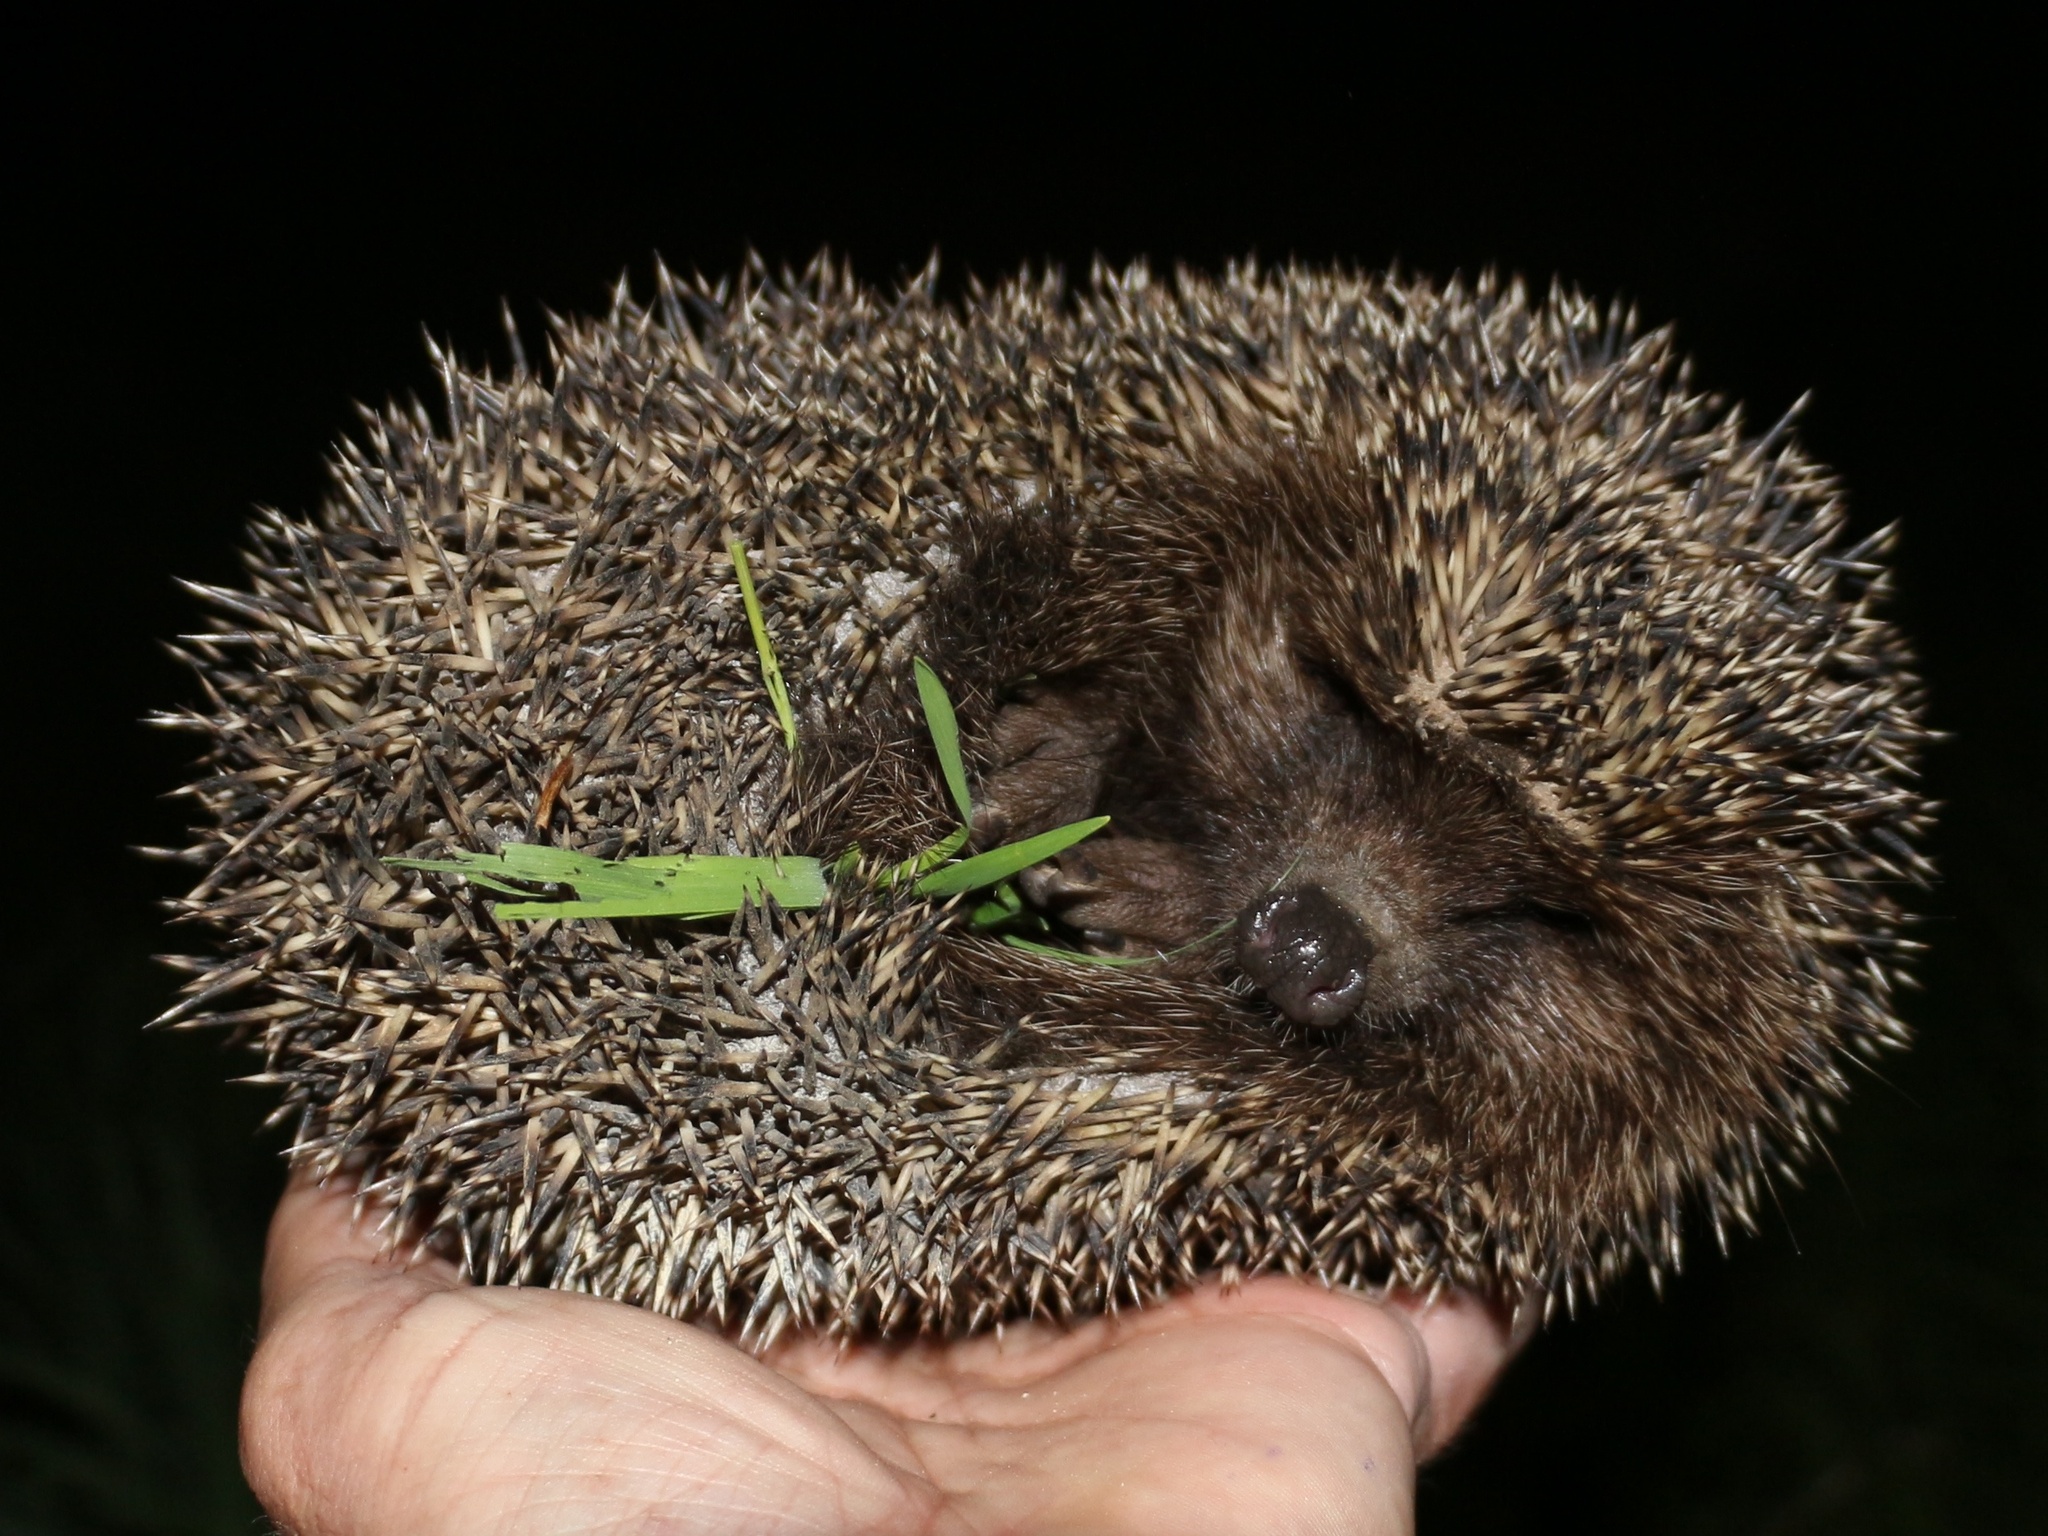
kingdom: Animalia
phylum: Chordata
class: Mammalia
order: Erinaceomorpha
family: Erinaceidae
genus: Erinaceus
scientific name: Erinaceus roumanicus
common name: Northern white-breasted hedgehog
